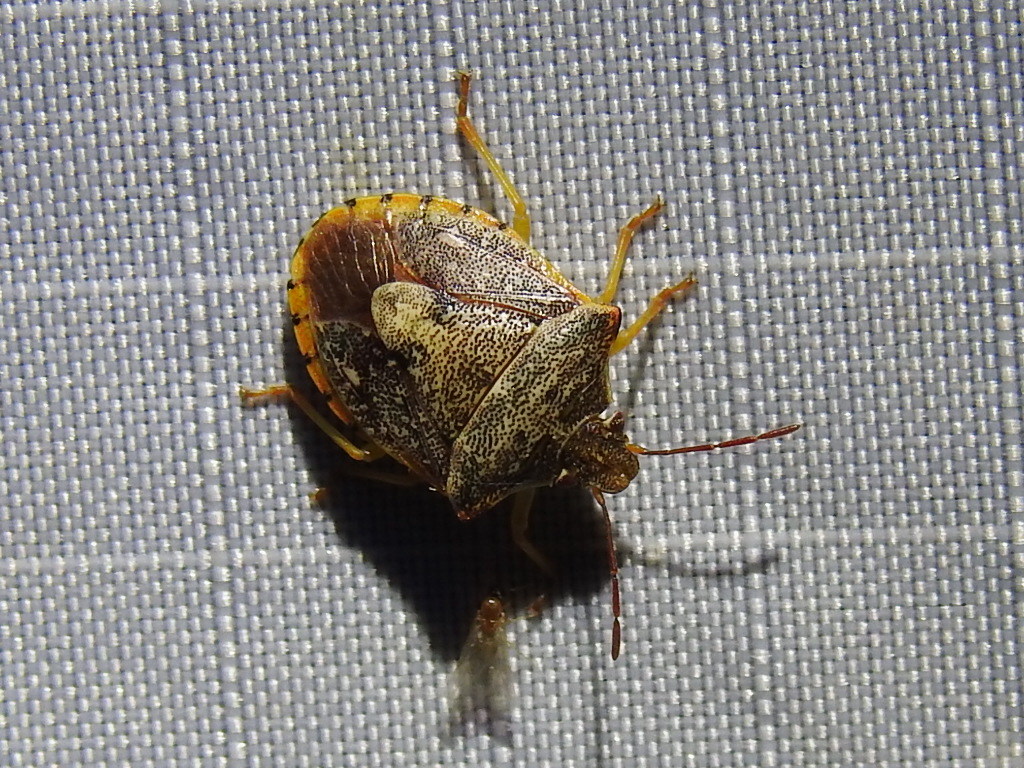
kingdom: Animalia
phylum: Arthropoda
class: Insecta
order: Hemiptera
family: Pentatomidae
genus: Dendrocoris
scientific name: Dendrocoris humeralis
